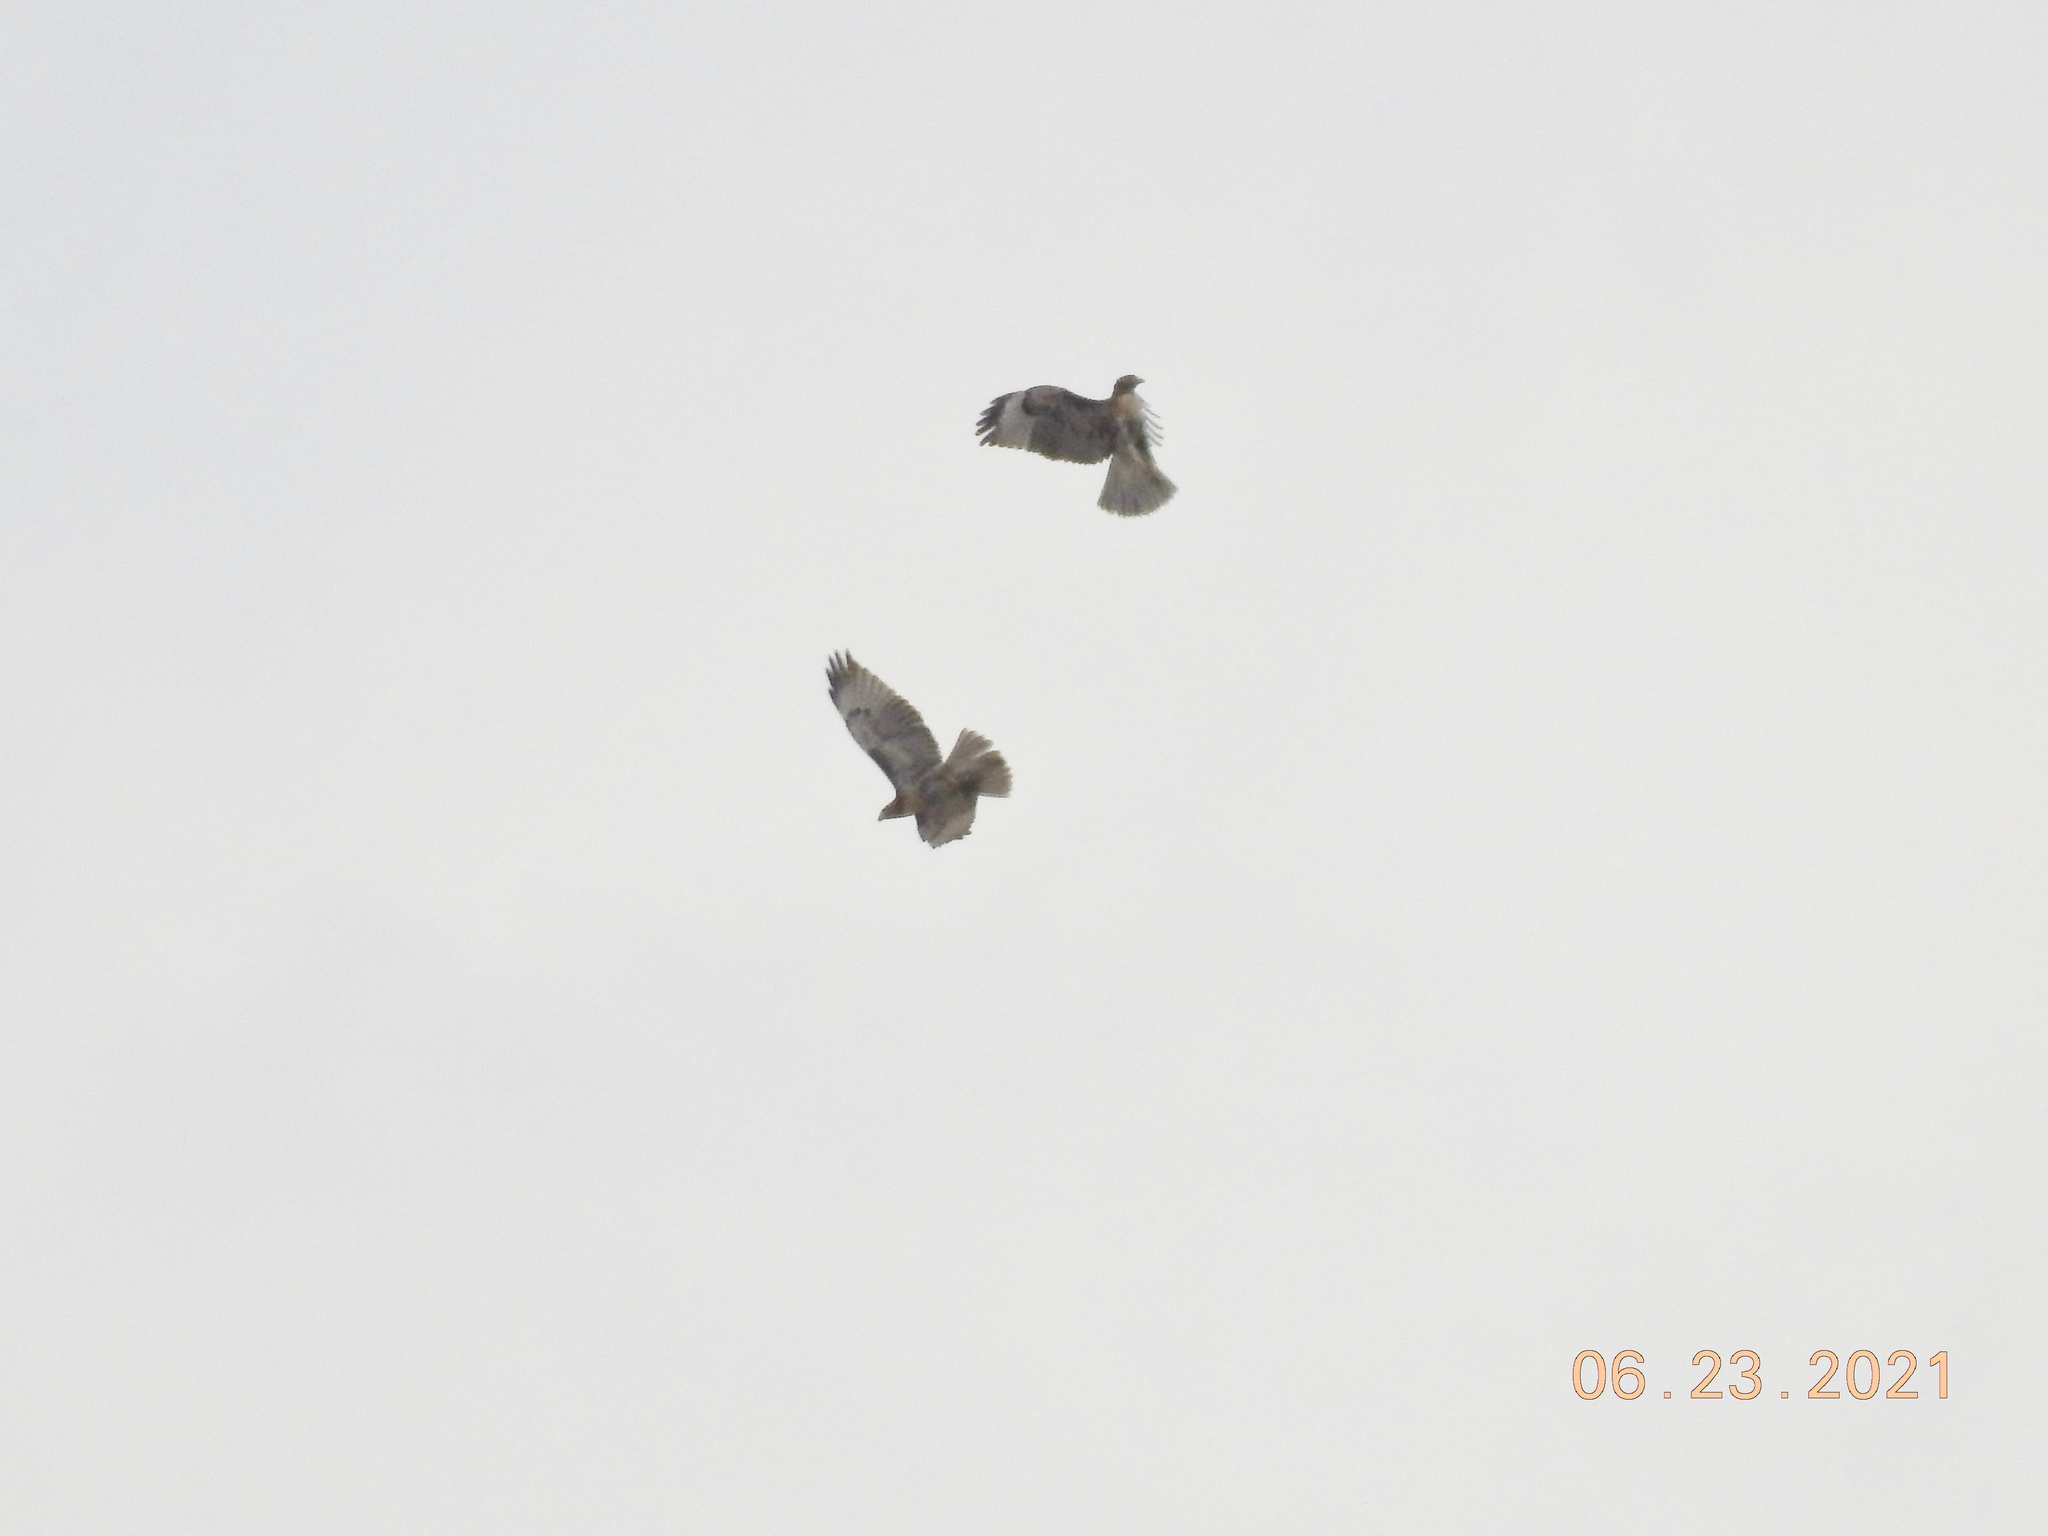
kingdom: Animalia
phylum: Chordata
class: Aves
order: Accipitriformes
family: Accipitridae
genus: Buteo
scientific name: Buteo jamaicensis
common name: Red-tailed hawk
